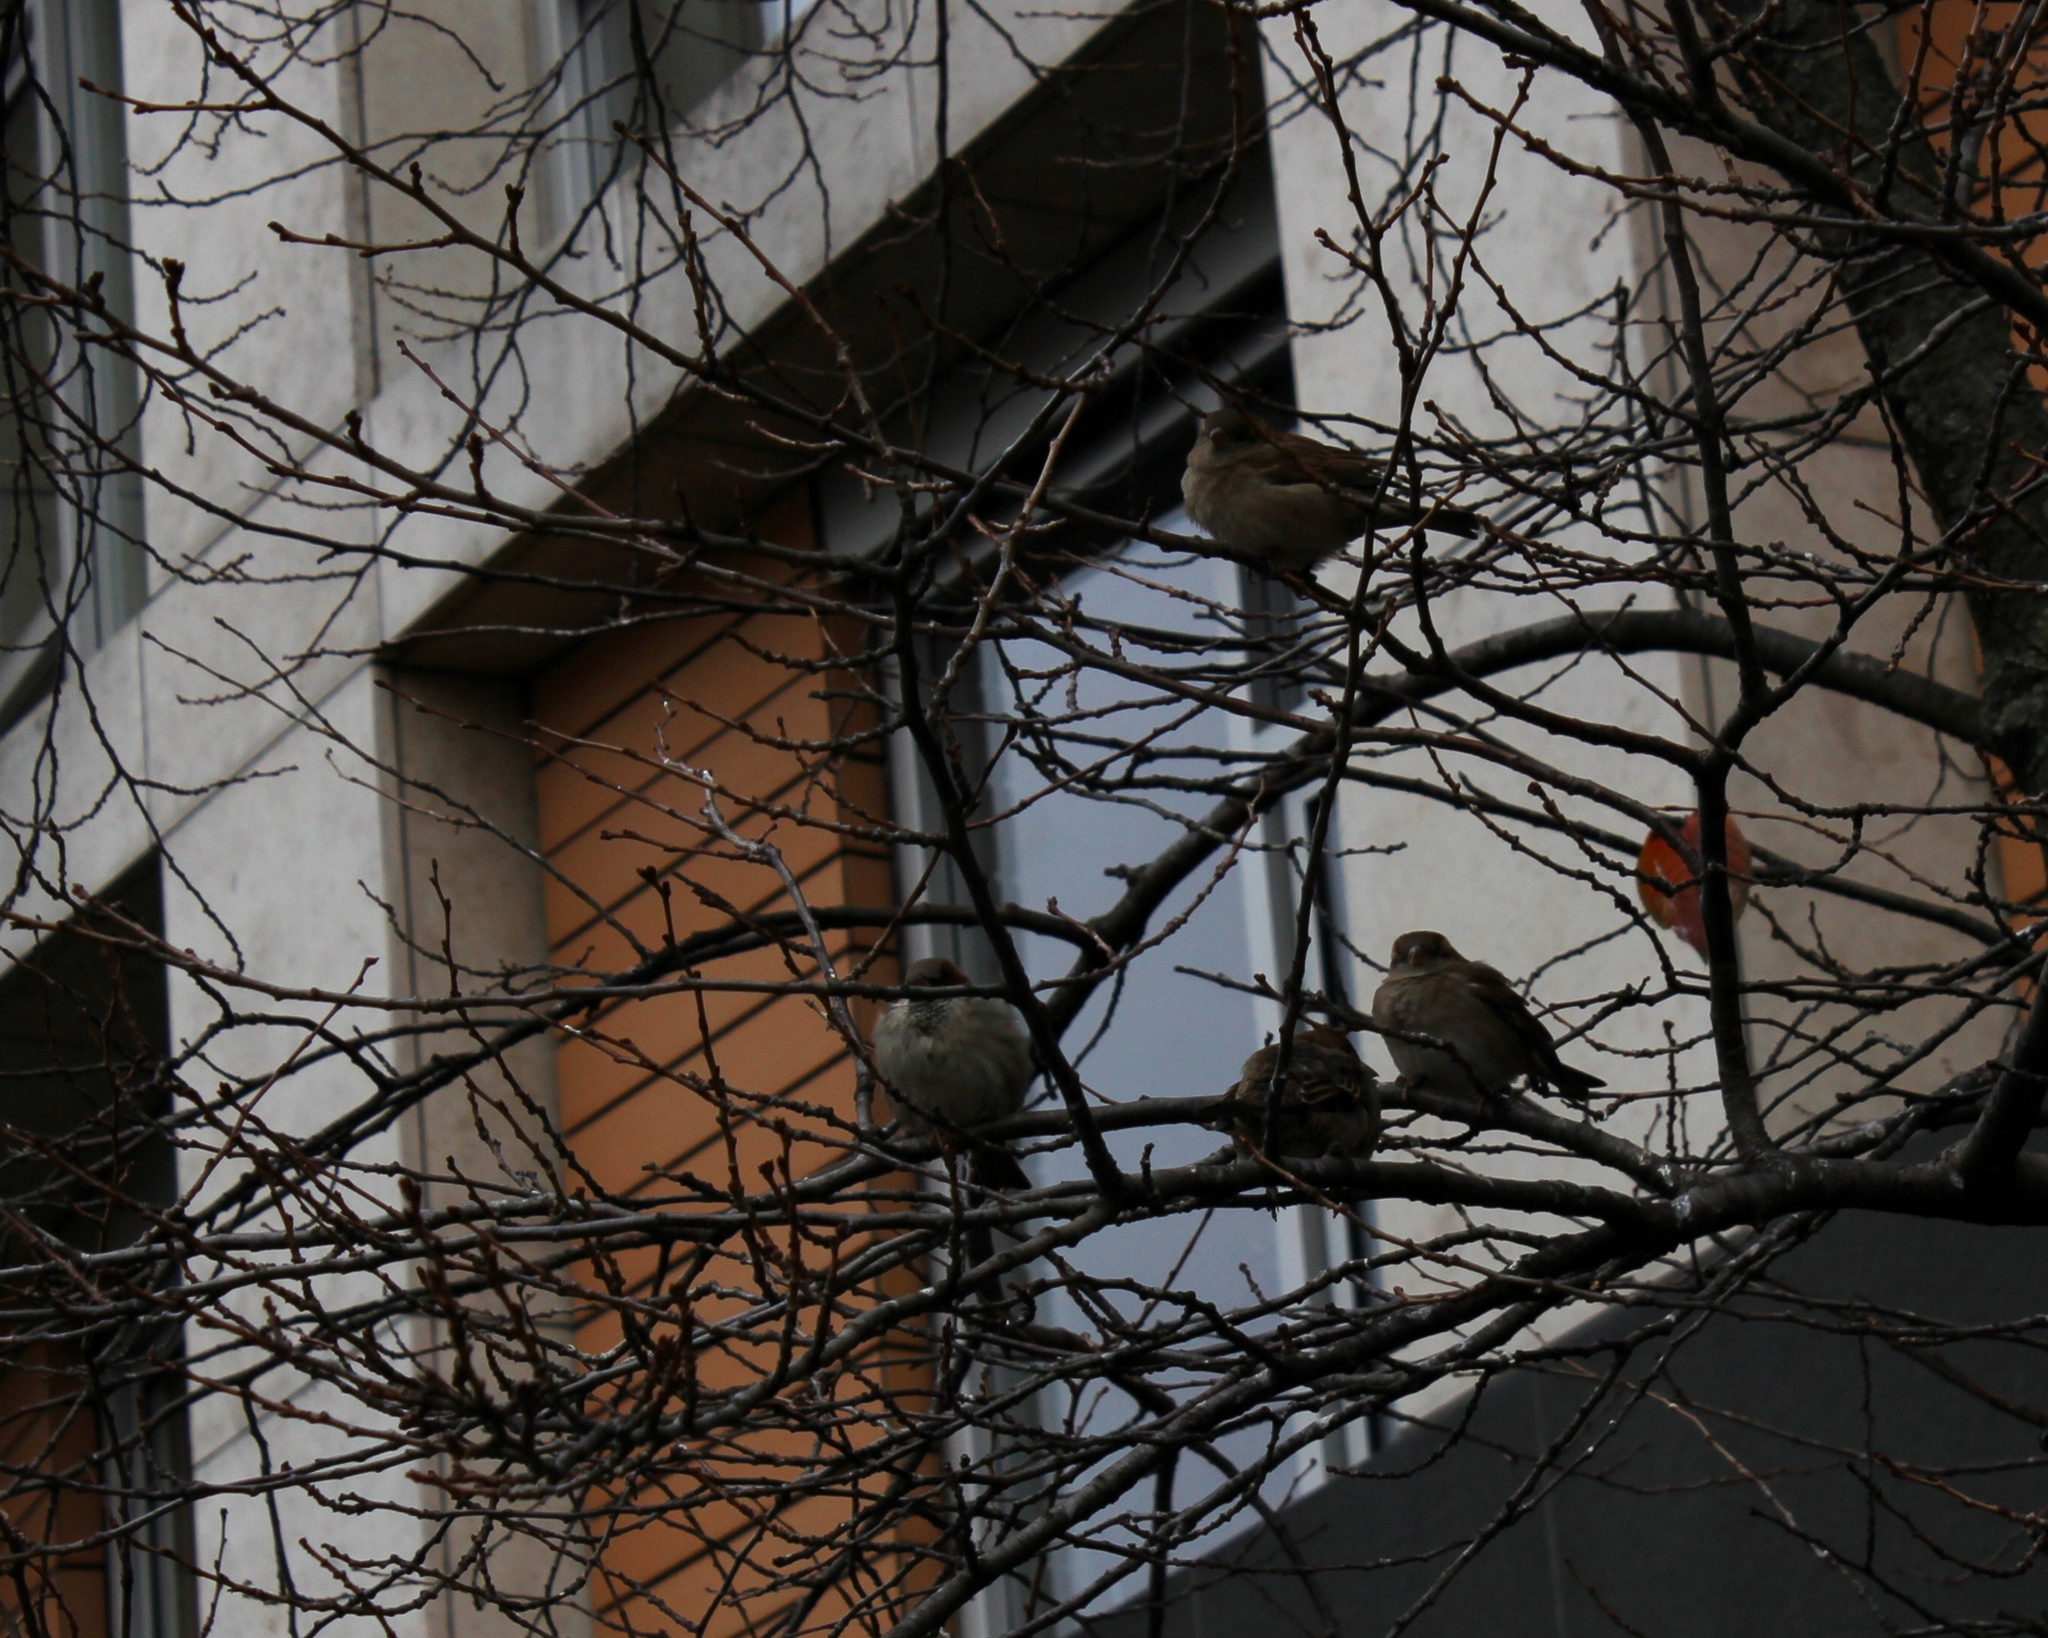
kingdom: Animalia
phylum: Chordata
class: Aves
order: Passeriformes
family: Passeridae
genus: Passer
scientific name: Passer domesticus
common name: House sparrow
